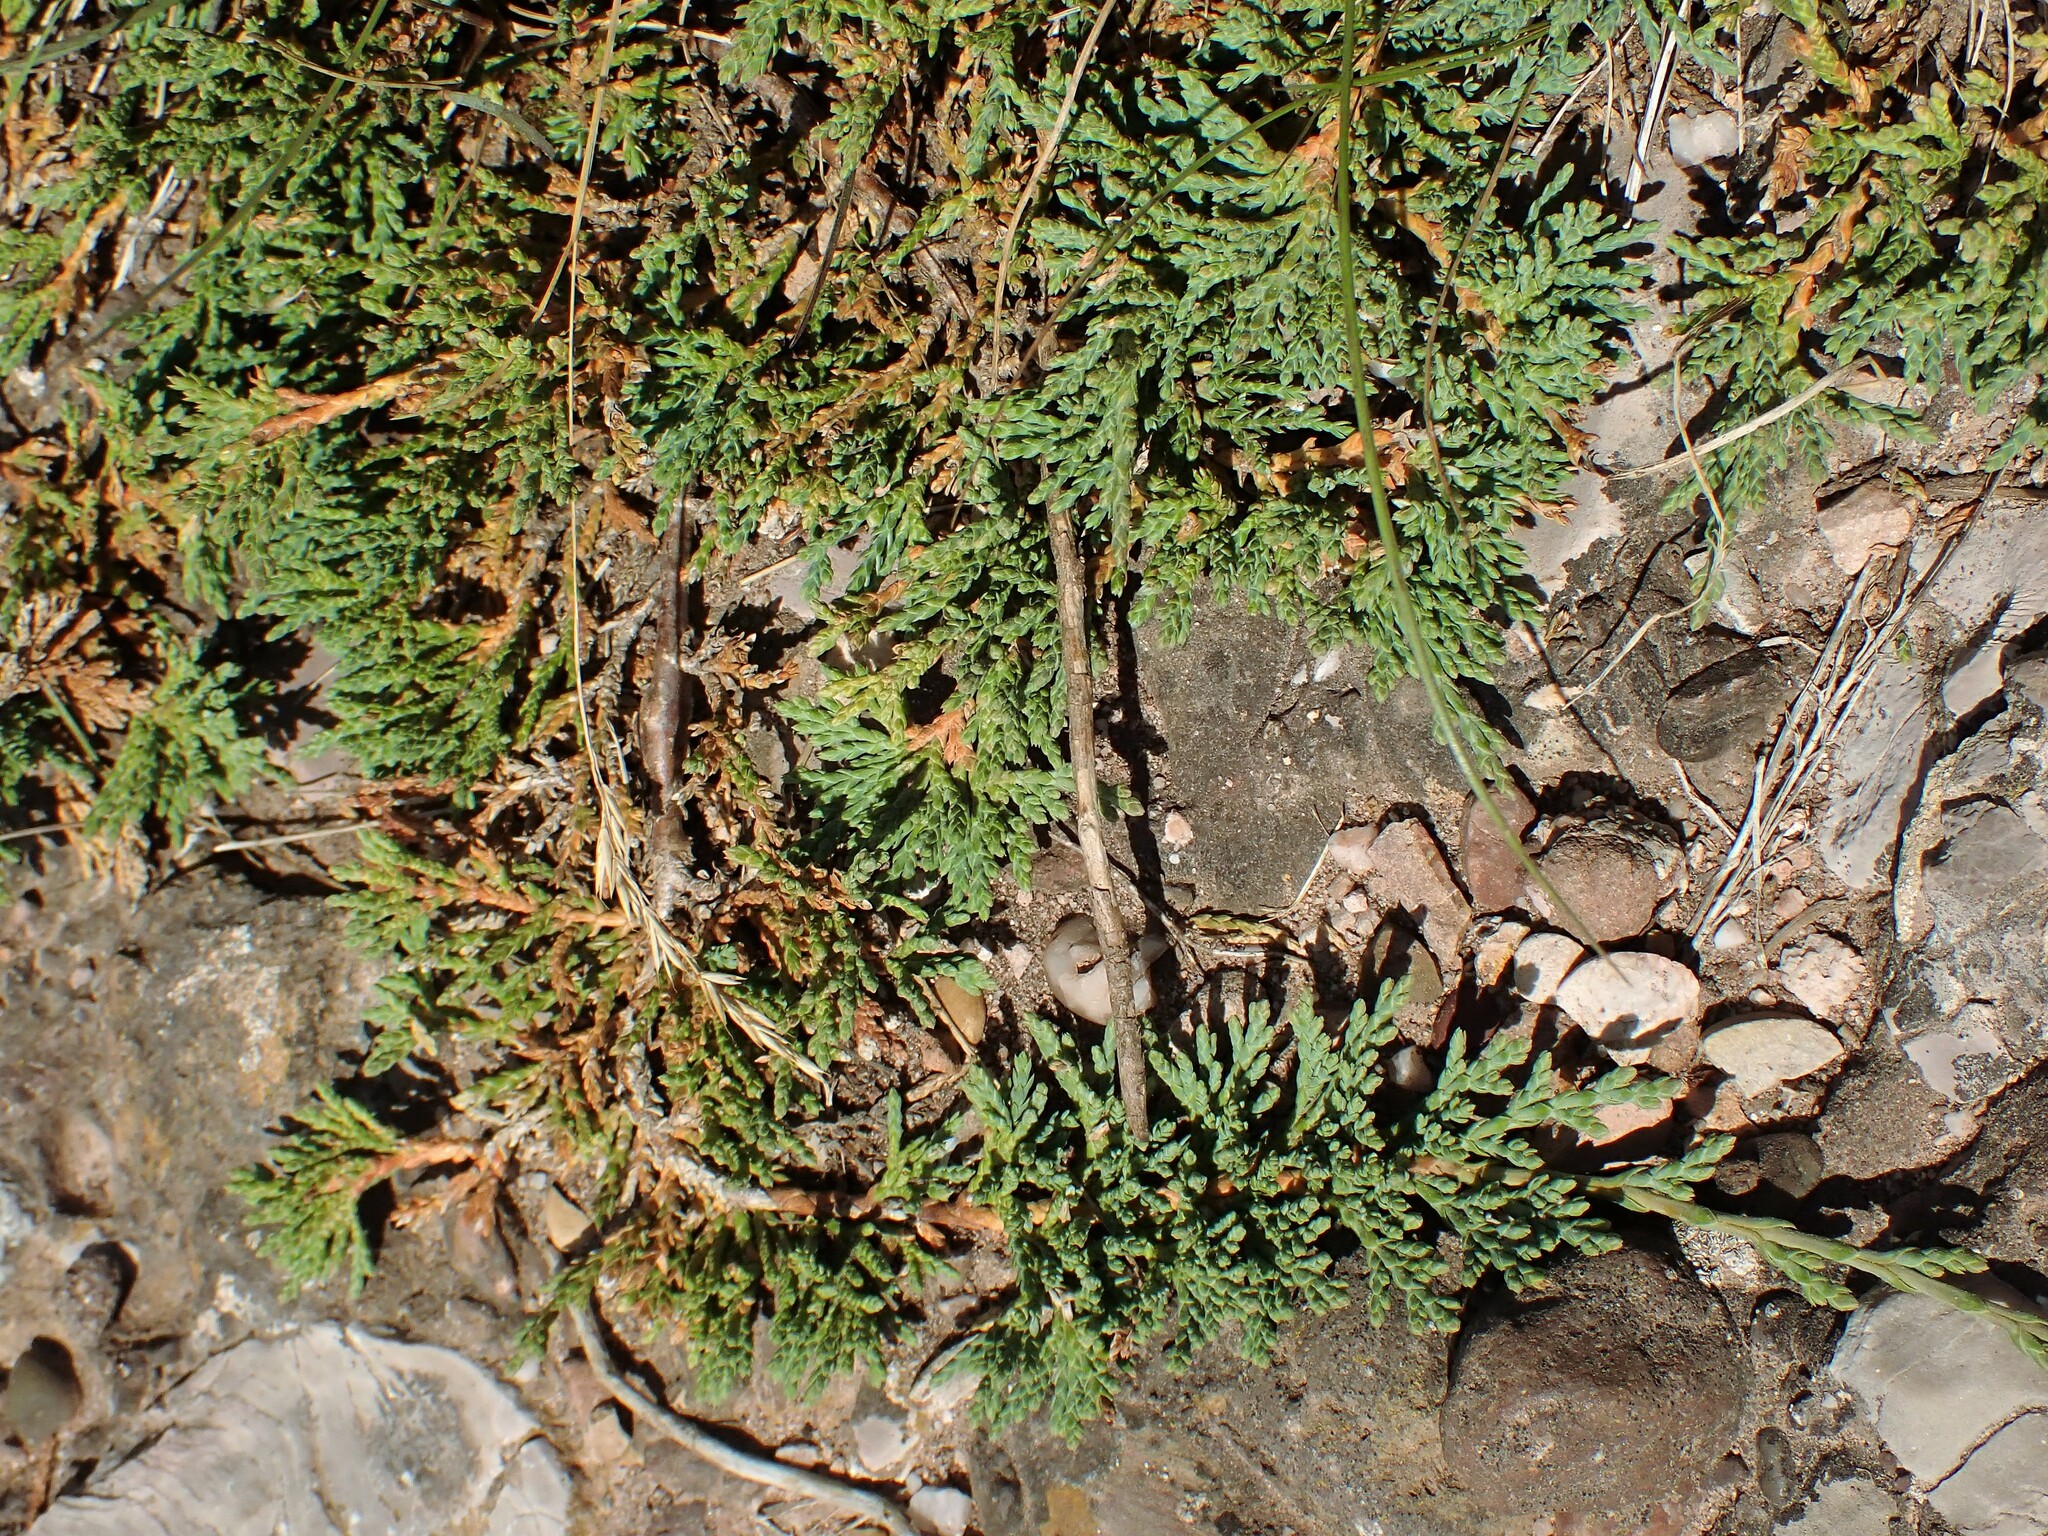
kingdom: Plantae
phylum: Tracheophyta
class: Pinopsida
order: Pinales
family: Cupressaceae
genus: Juniperus
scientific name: Juniperus horizontalis
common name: Creeping juniper
